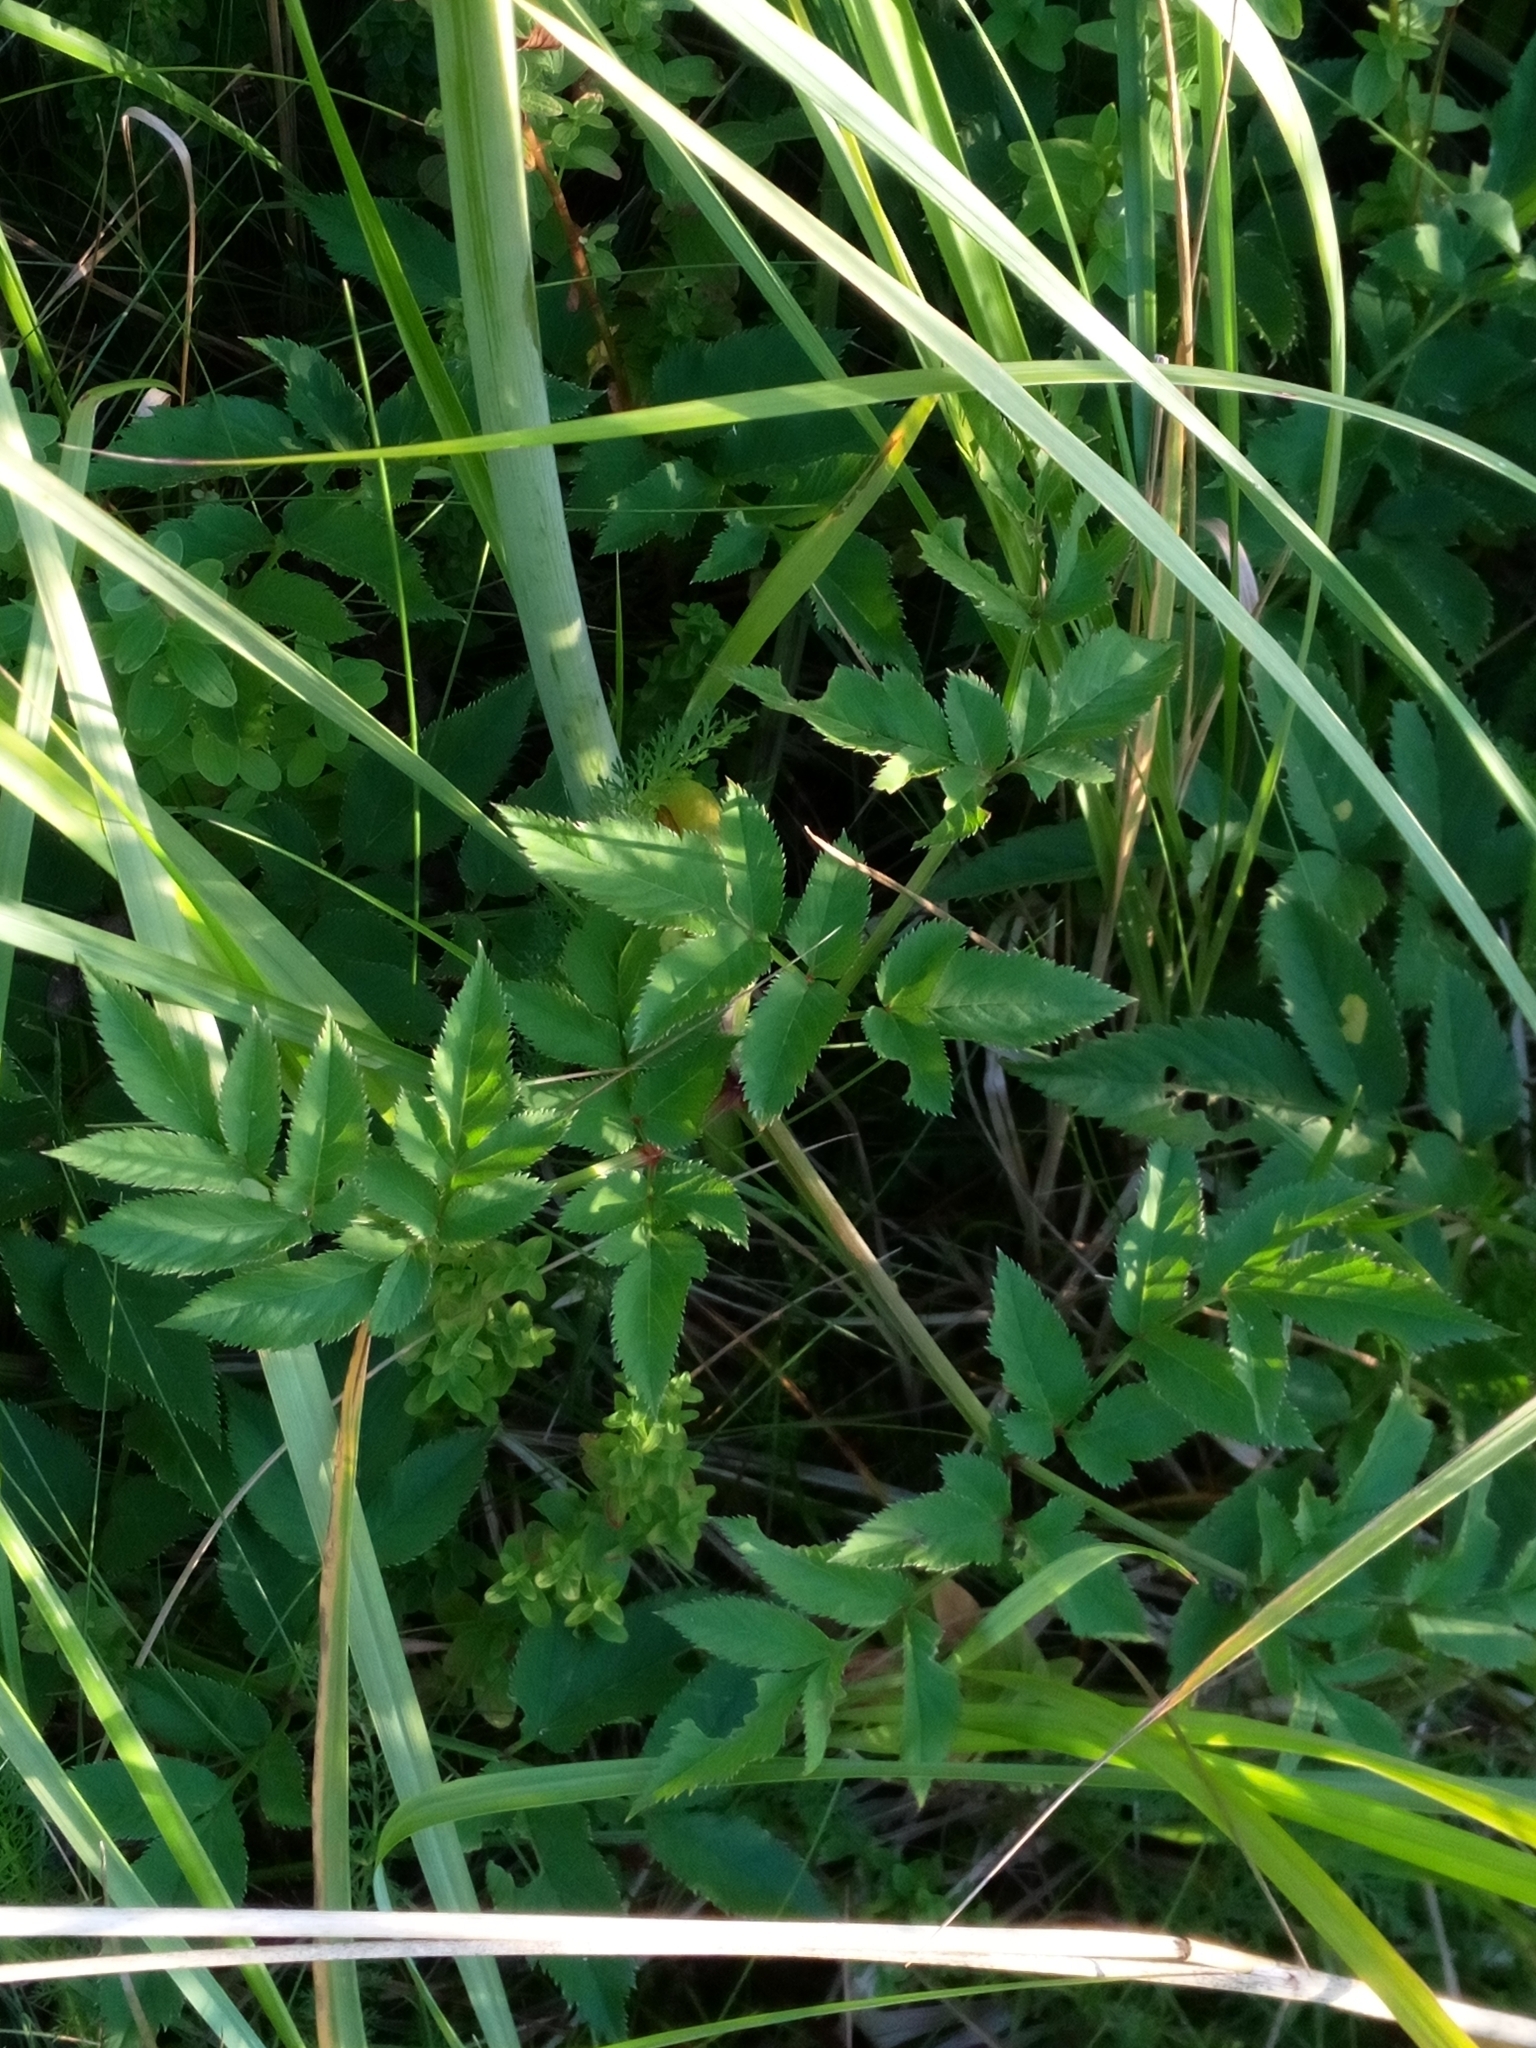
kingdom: Plantae
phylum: Tracheophyta
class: Magnoliopsida
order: Apiales
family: Apiaceae
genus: Angelica
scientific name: Angelica sylvestris
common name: Wild angelica
